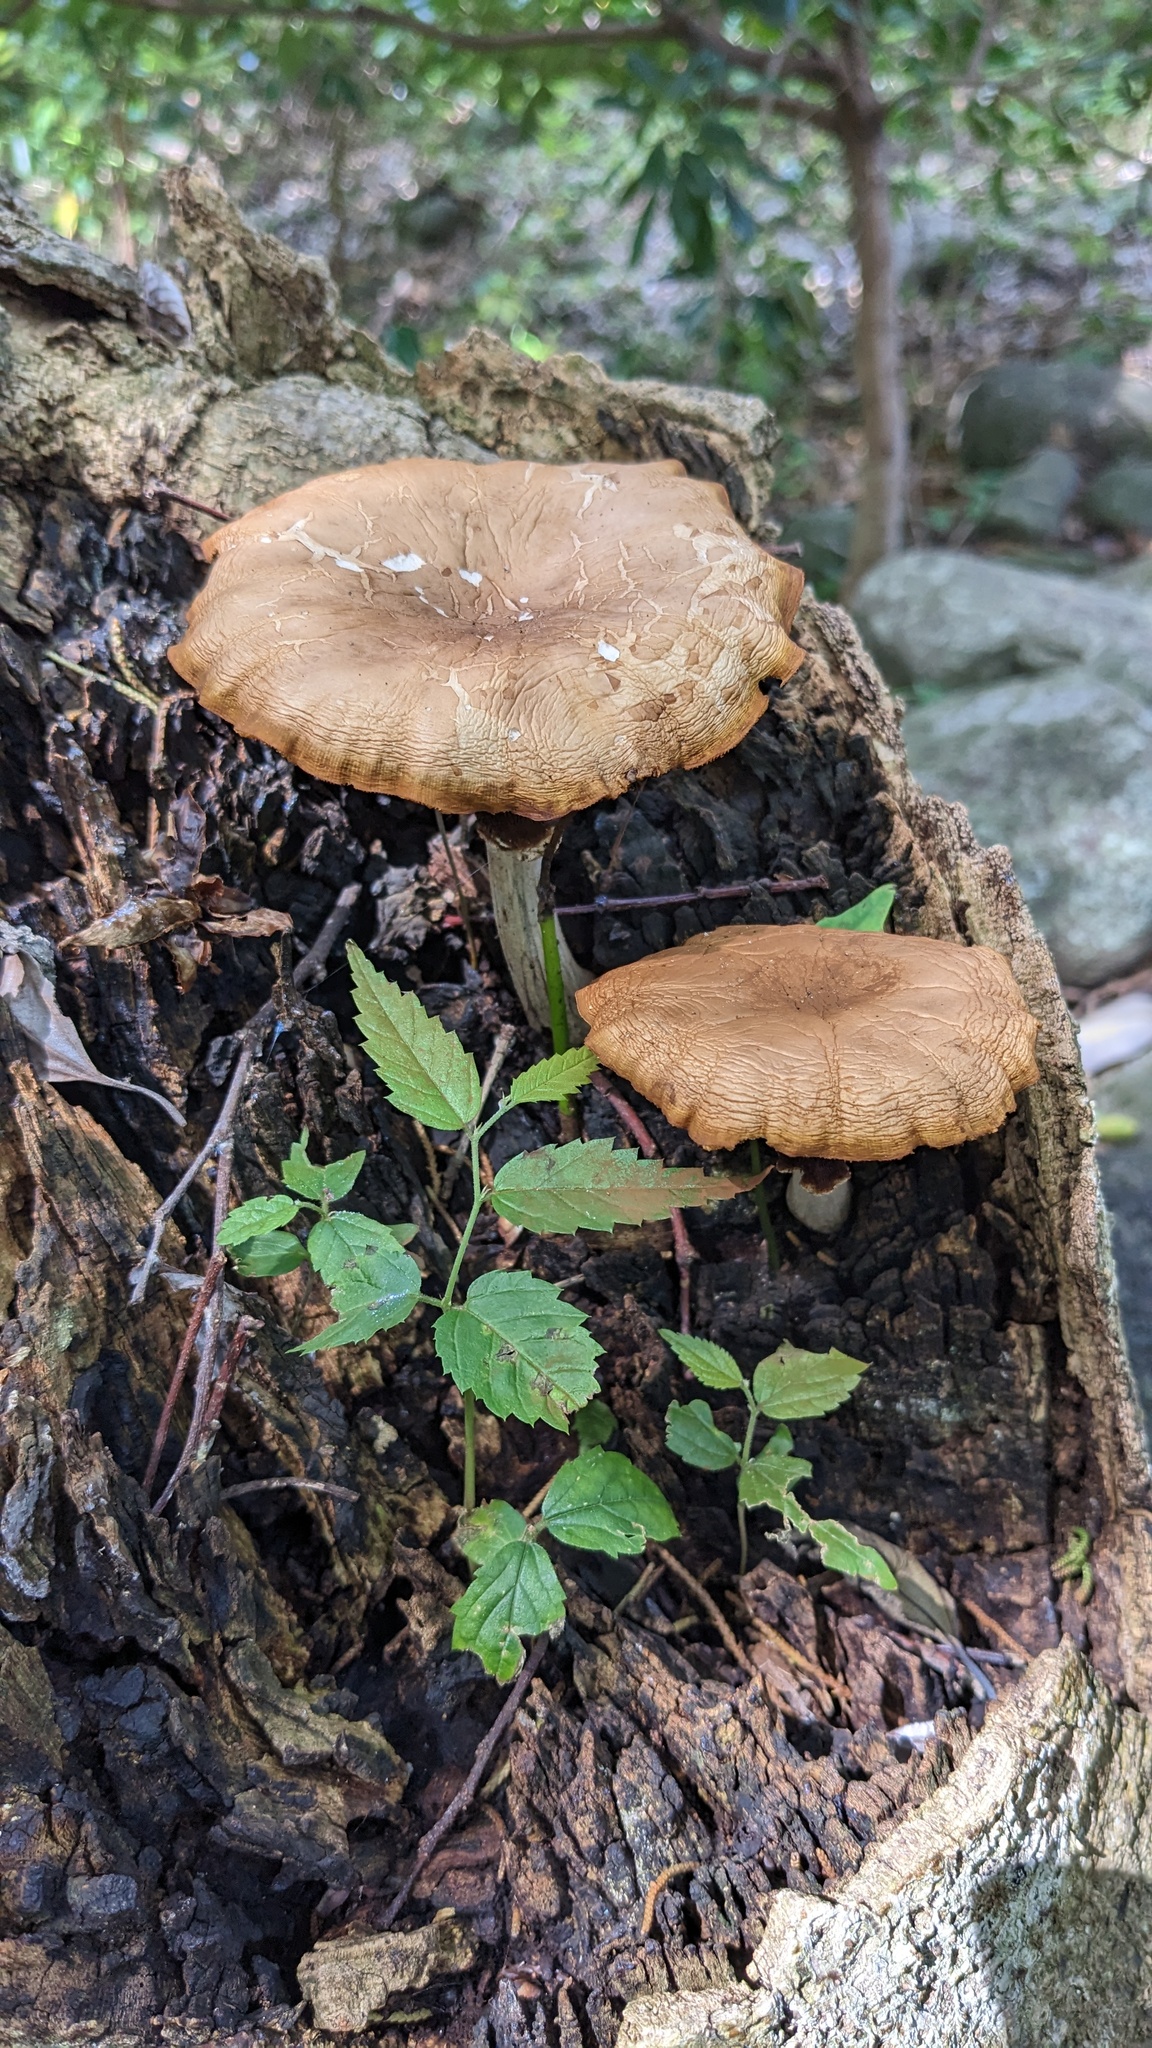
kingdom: Fungi
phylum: Basidiomycota
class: Agaricomycetes
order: Agaricales
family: Tubariaceae
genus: Cyclocybe
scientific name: Cyclocybe cylindracea
